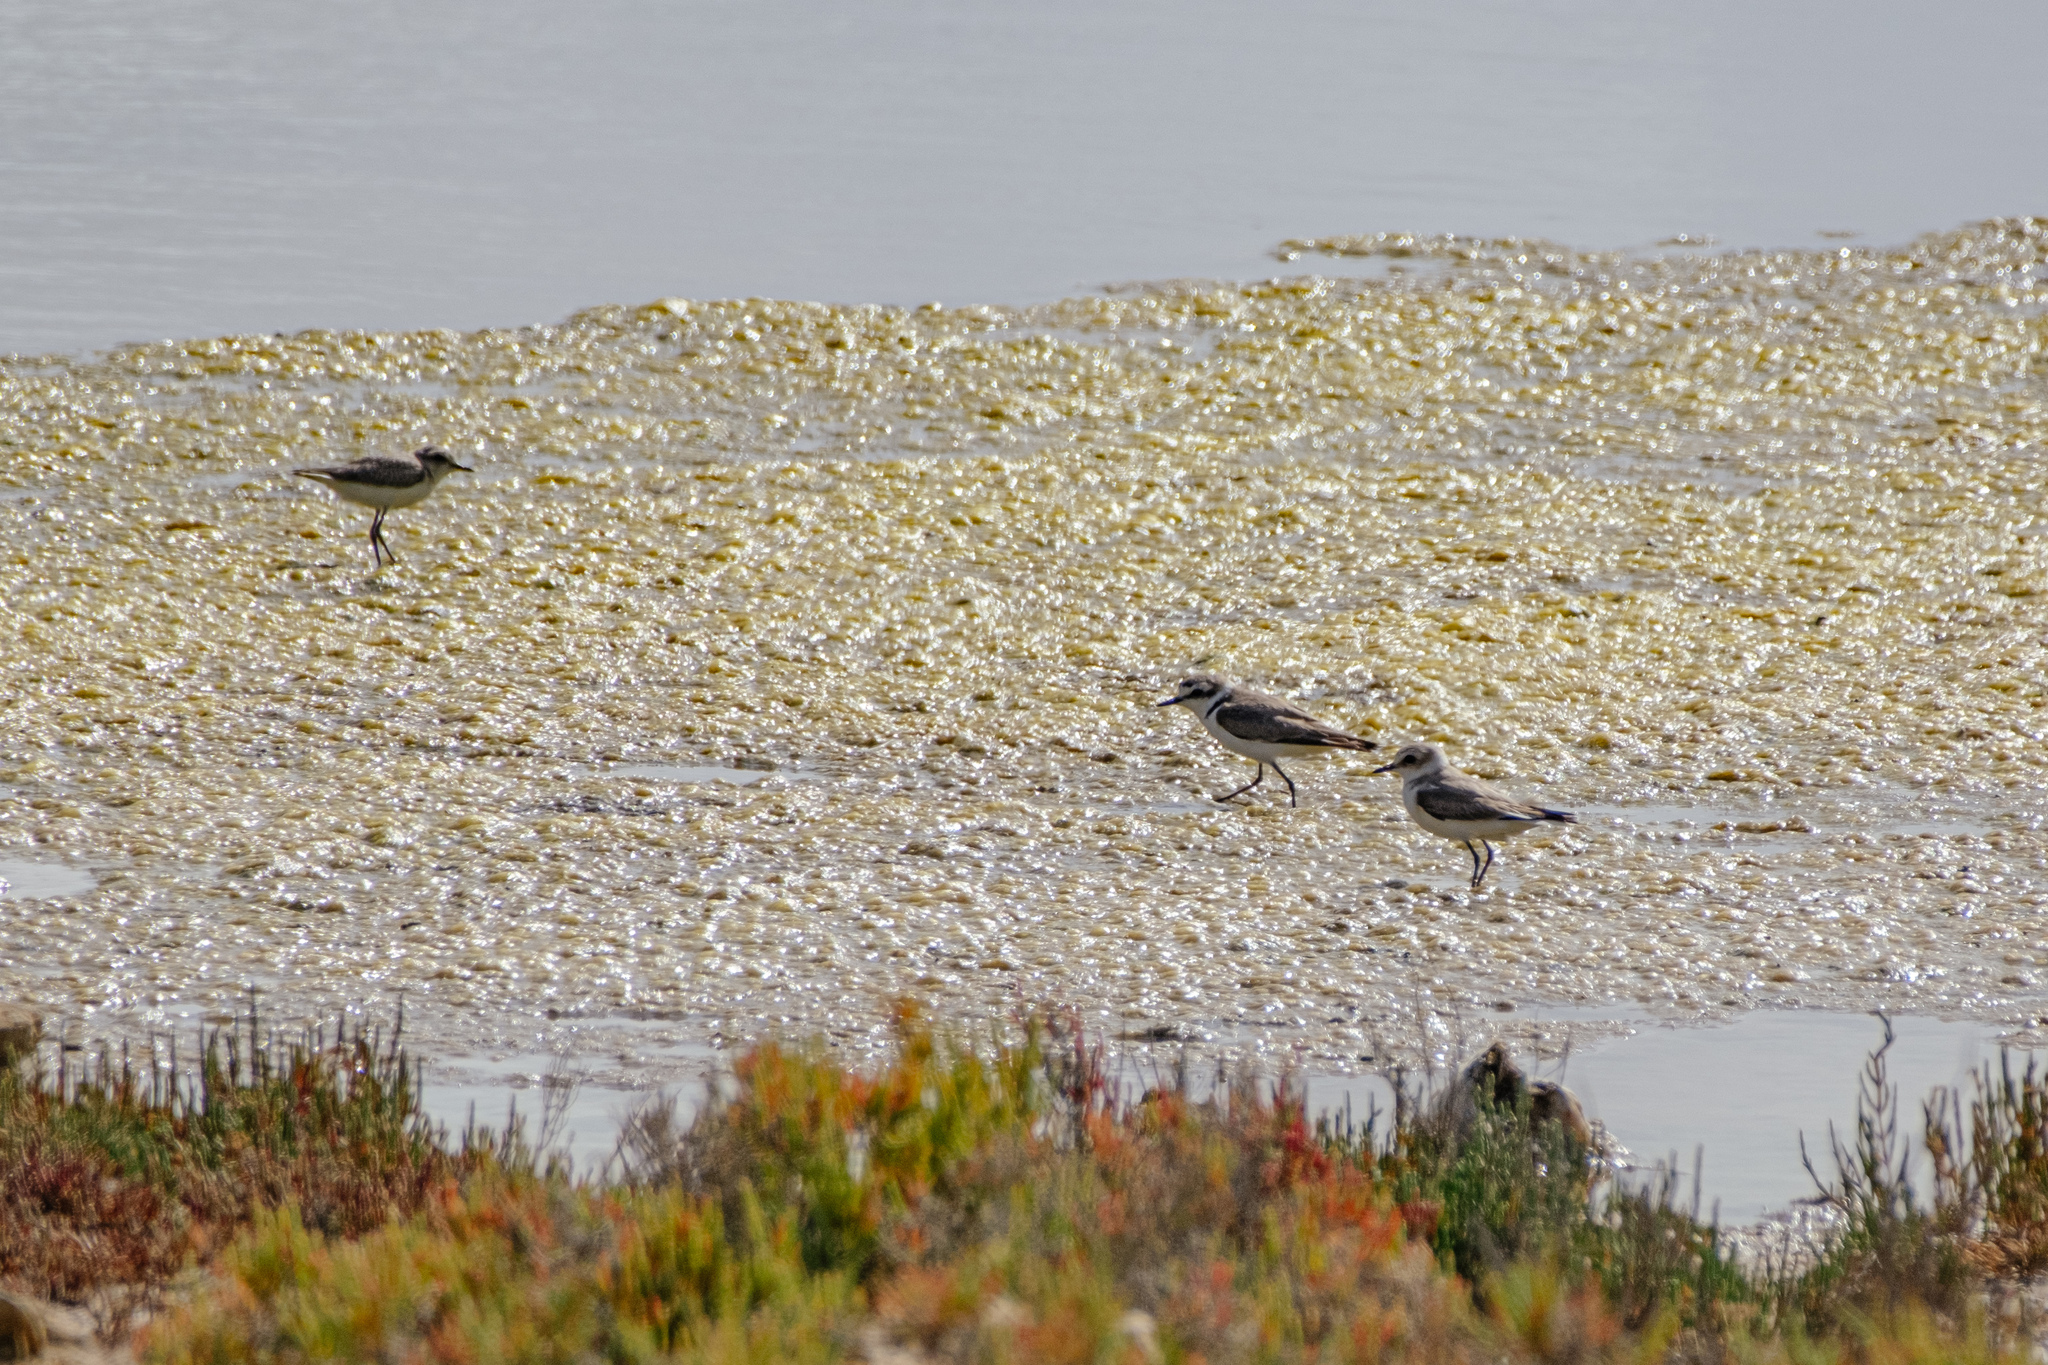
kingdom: Animalia
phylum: Chordata
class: Aves
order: Charadriiformes
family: Charadriidae
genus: Charadrius
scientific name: Charadrius alexandrinus
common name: Kentish plover
